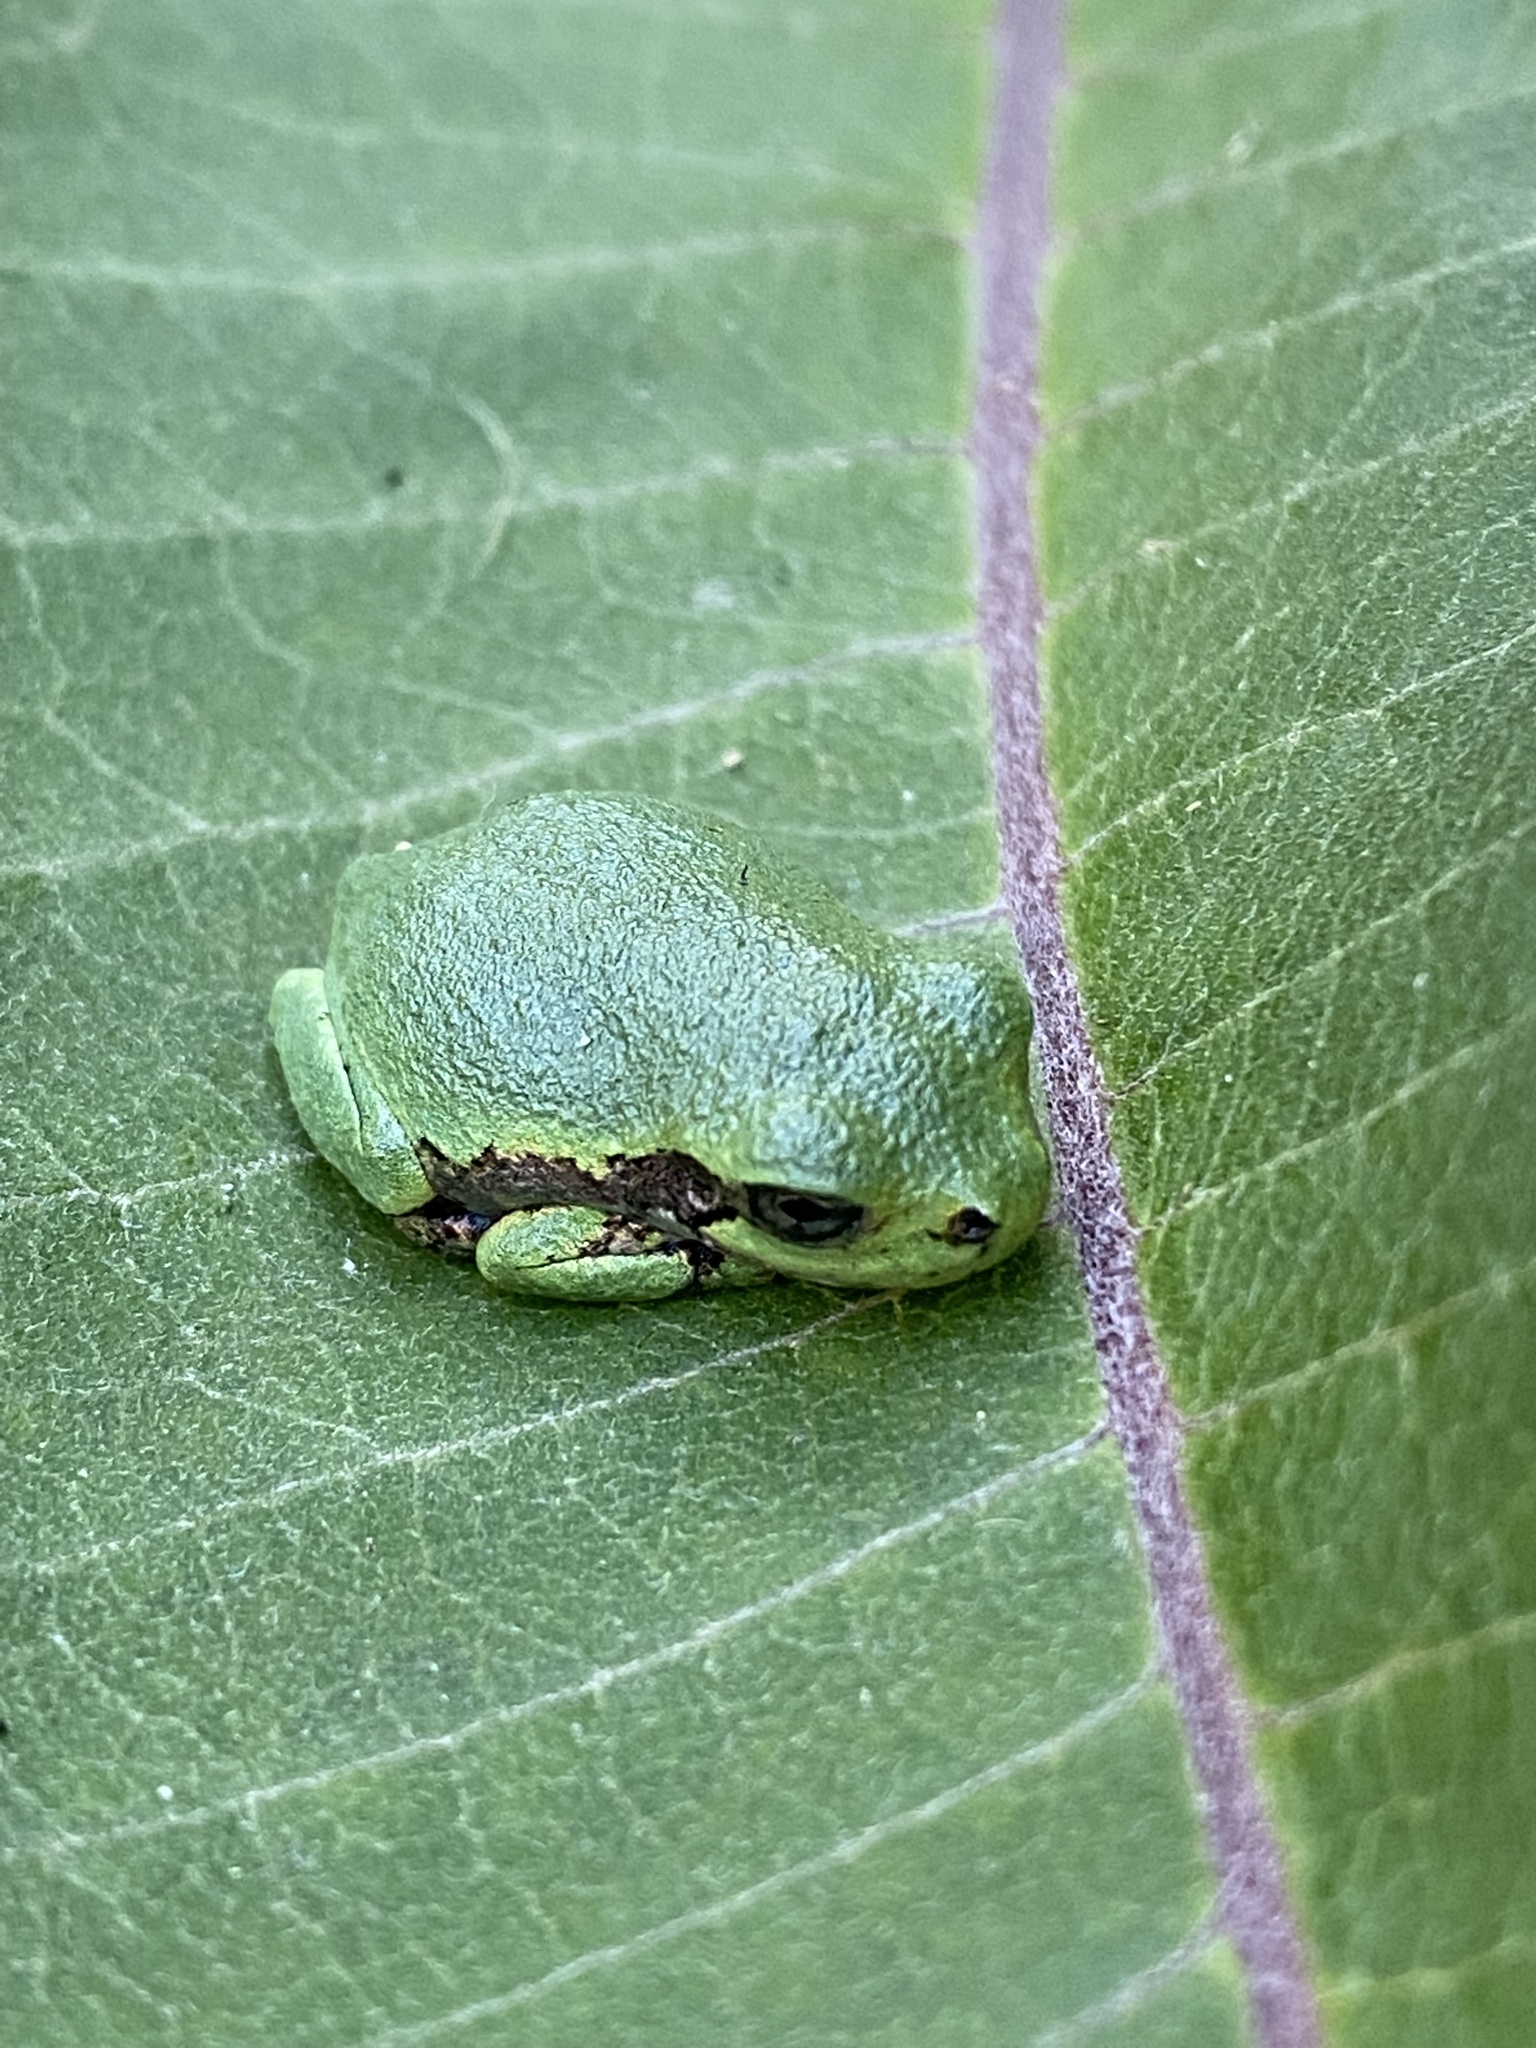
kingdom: Animalia
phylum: Chordata
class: Amphibia
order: Anura
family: Hylidae
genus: Hyla
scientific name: Hyla
